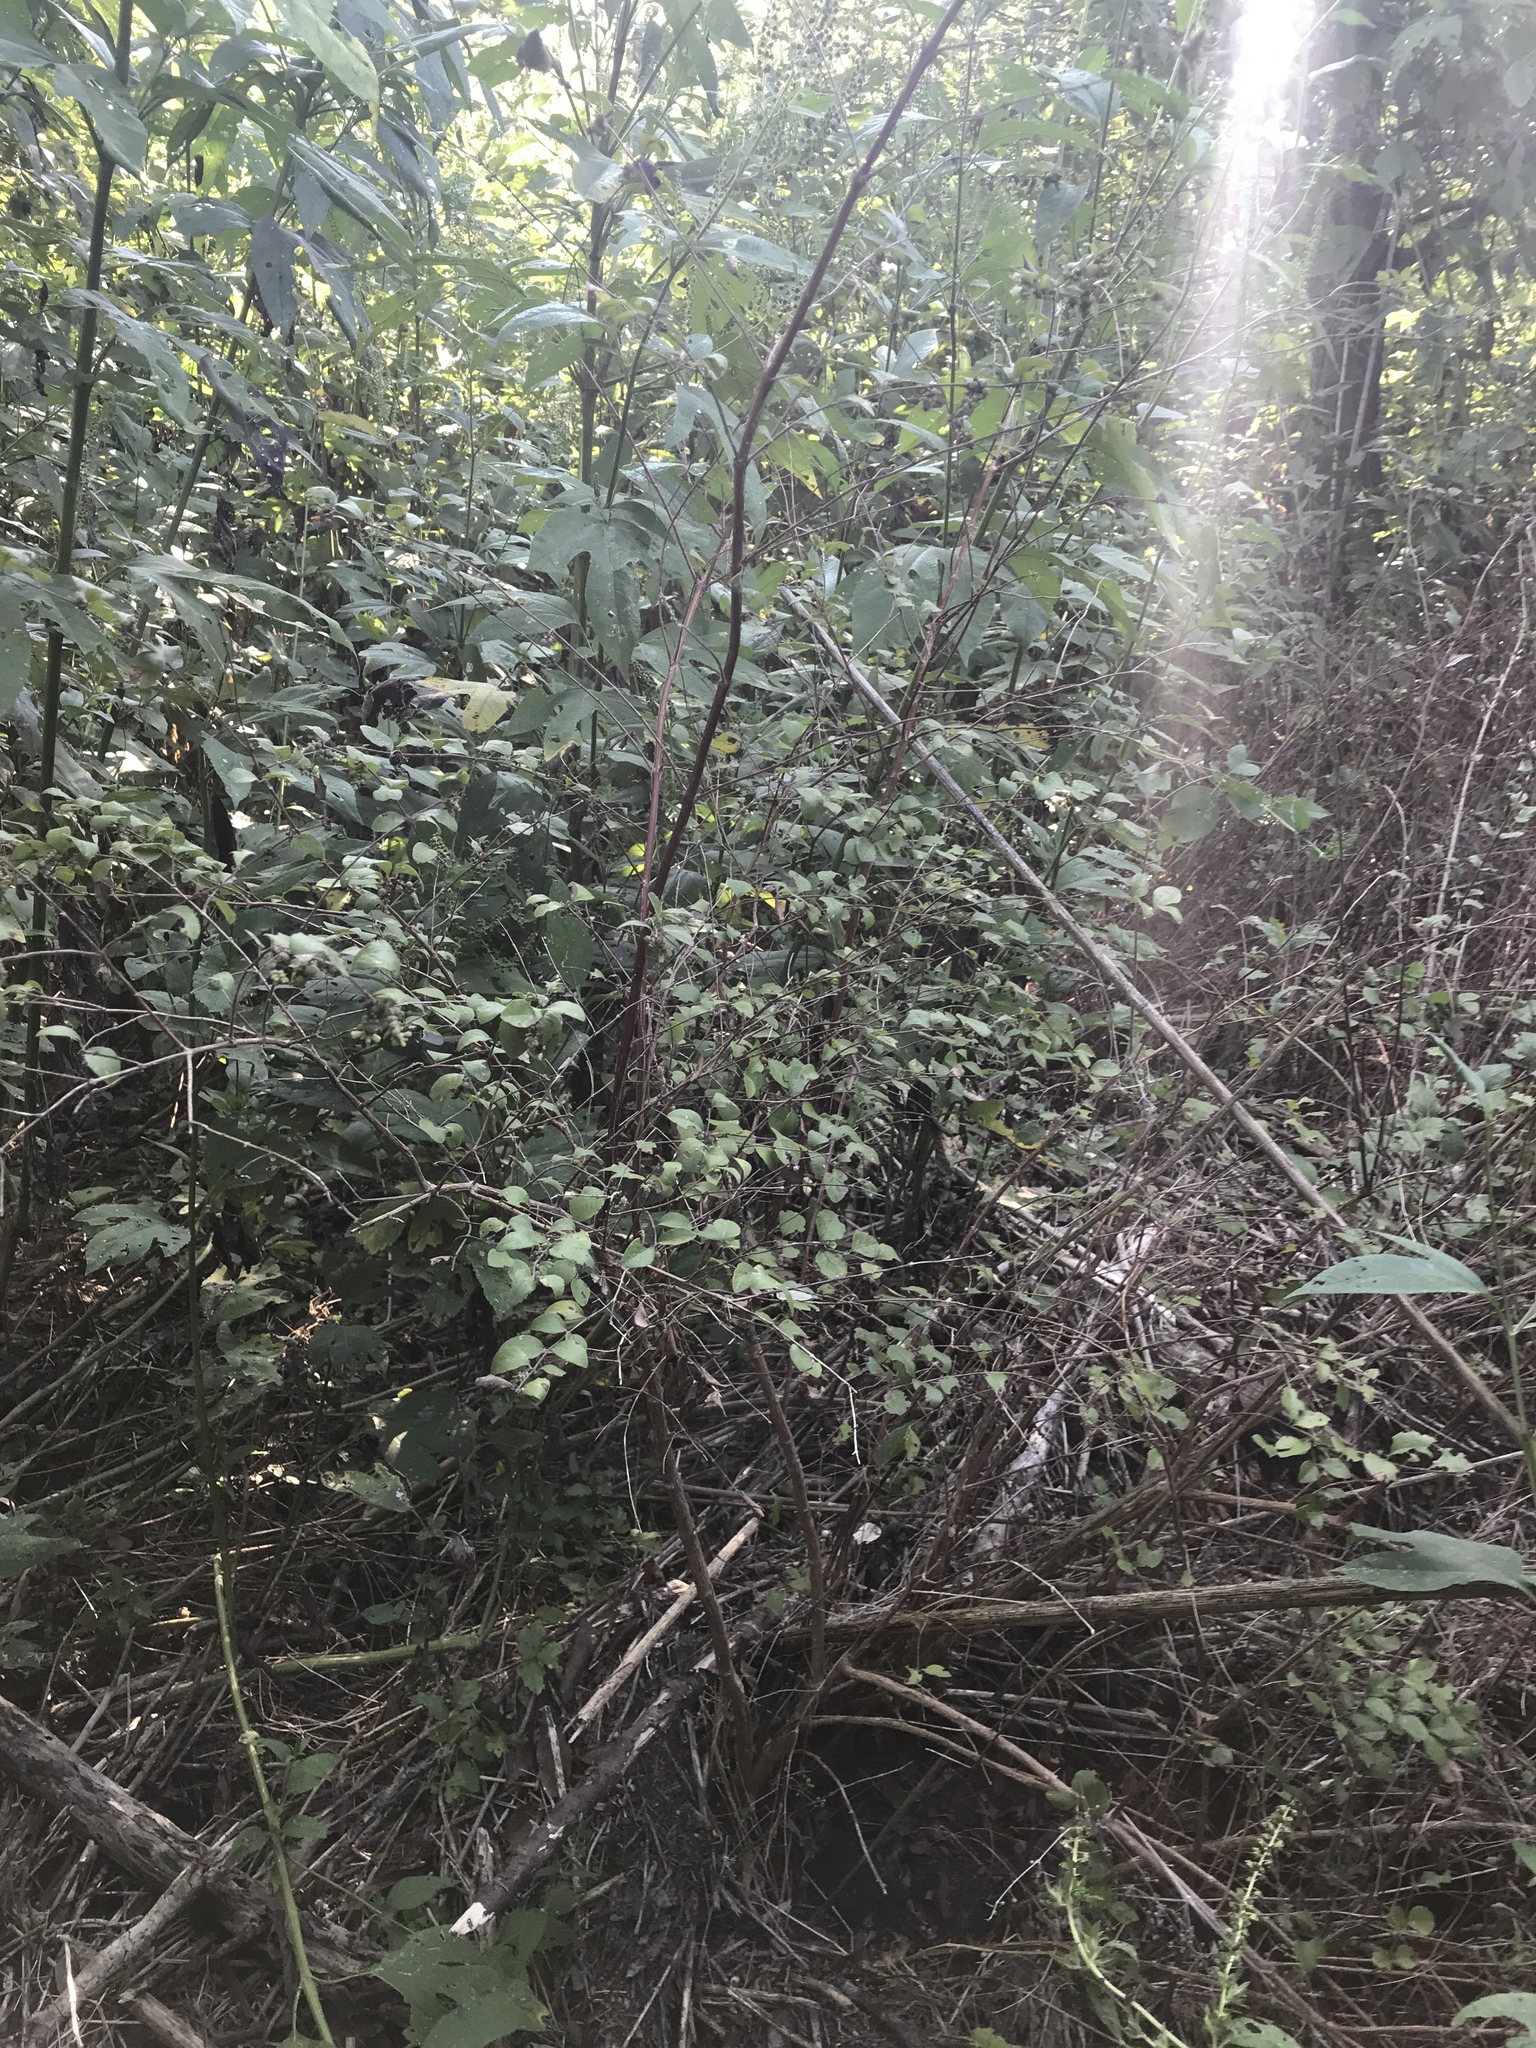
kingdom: Plantae
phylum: Tracheophyta
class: Magnoliopsida
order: Dipsacales
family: Caprifoliaceae
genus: Symphoricarpos
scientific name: Symphoricarpos orbiculatus
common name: Coralberry
